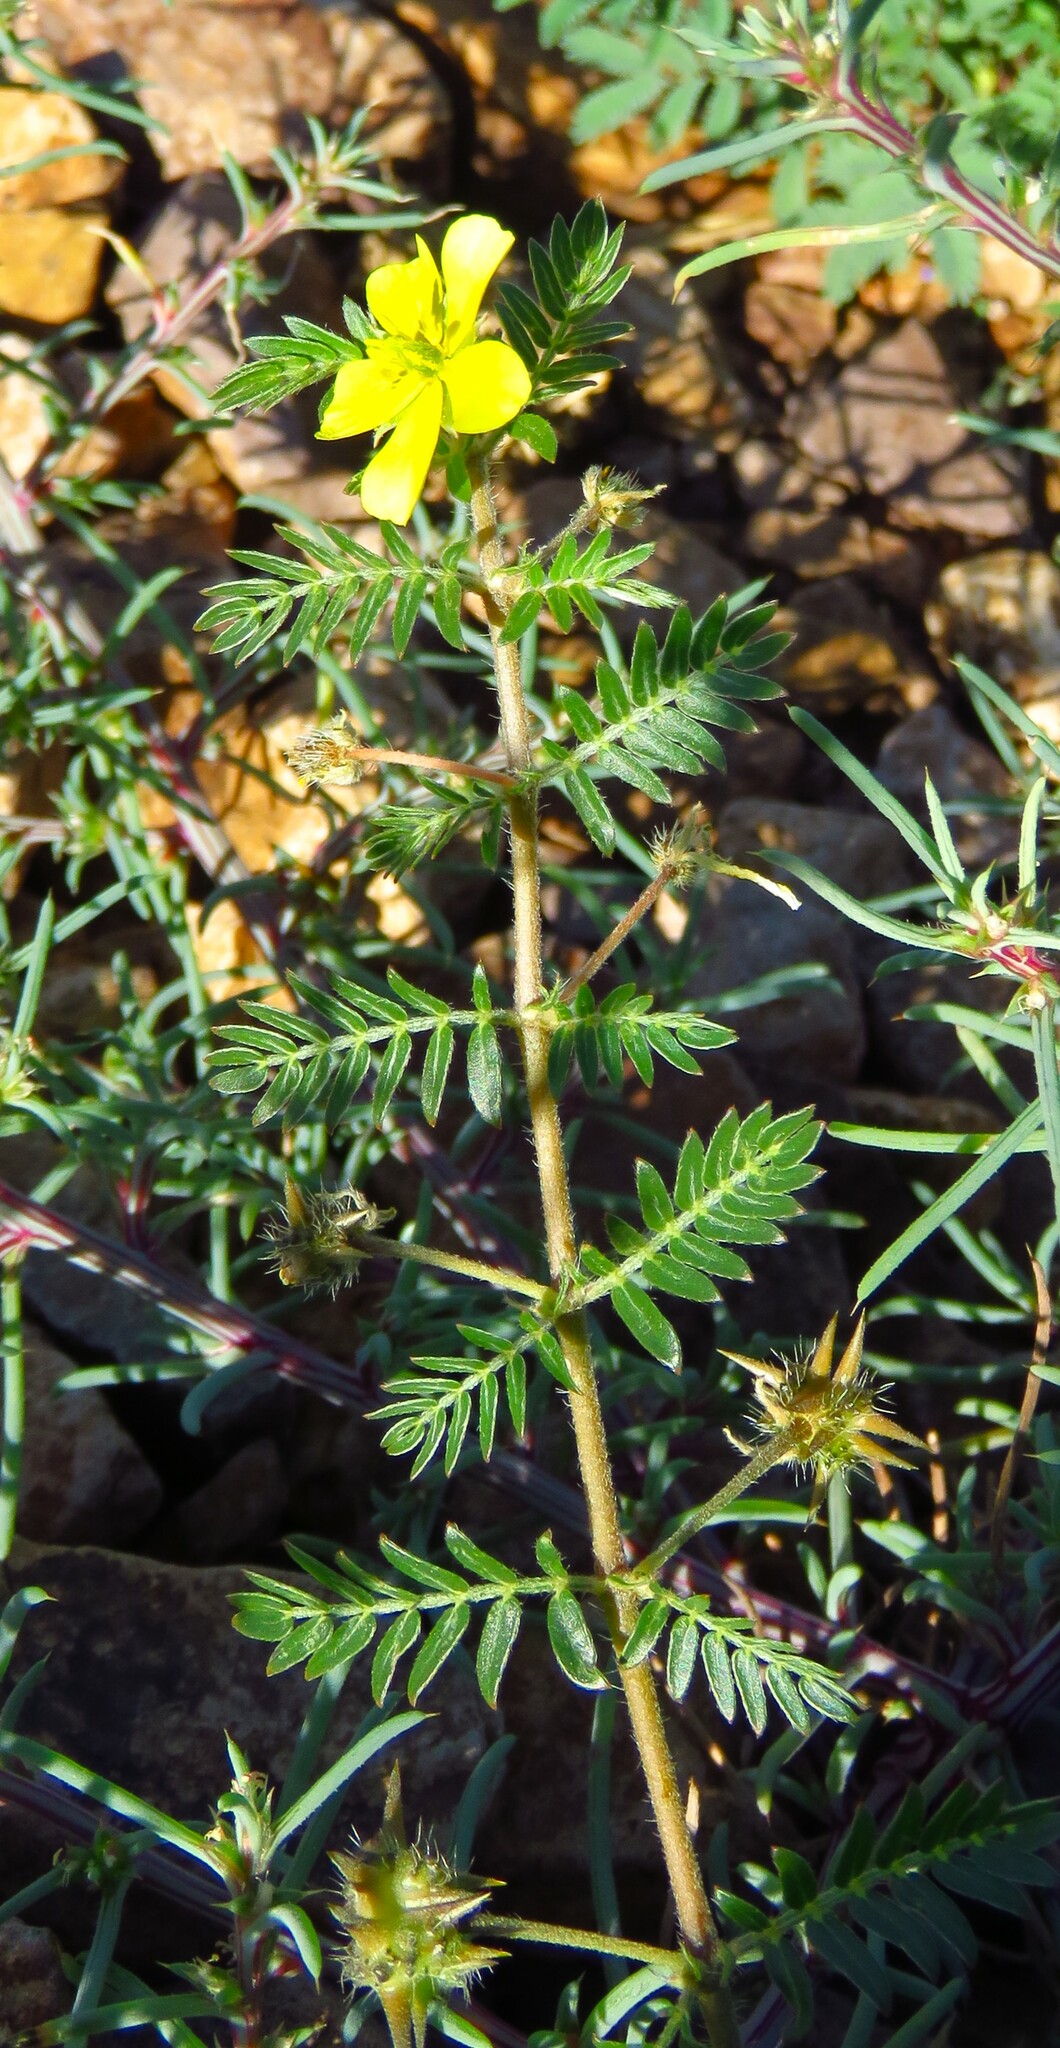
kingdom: Plantae
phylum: Tracheophyta
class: Magnoliopsida
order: Zygophyllales
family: Zygophyllaceae
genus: Tribulus
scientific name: Tribulus terrestris
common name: Puncturevine
